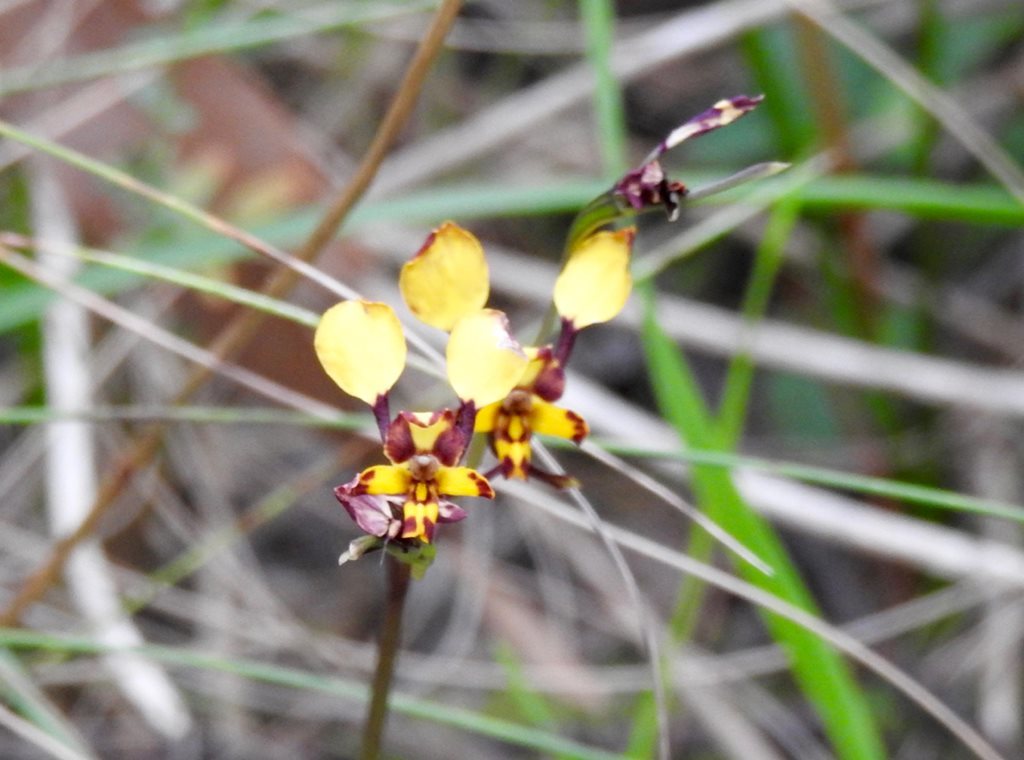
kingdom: Plantae
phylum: Tracheophyta
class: Liliopsida
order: Asparagales
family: Orchidaceae
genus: Diuris
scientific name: Diuris pardina
